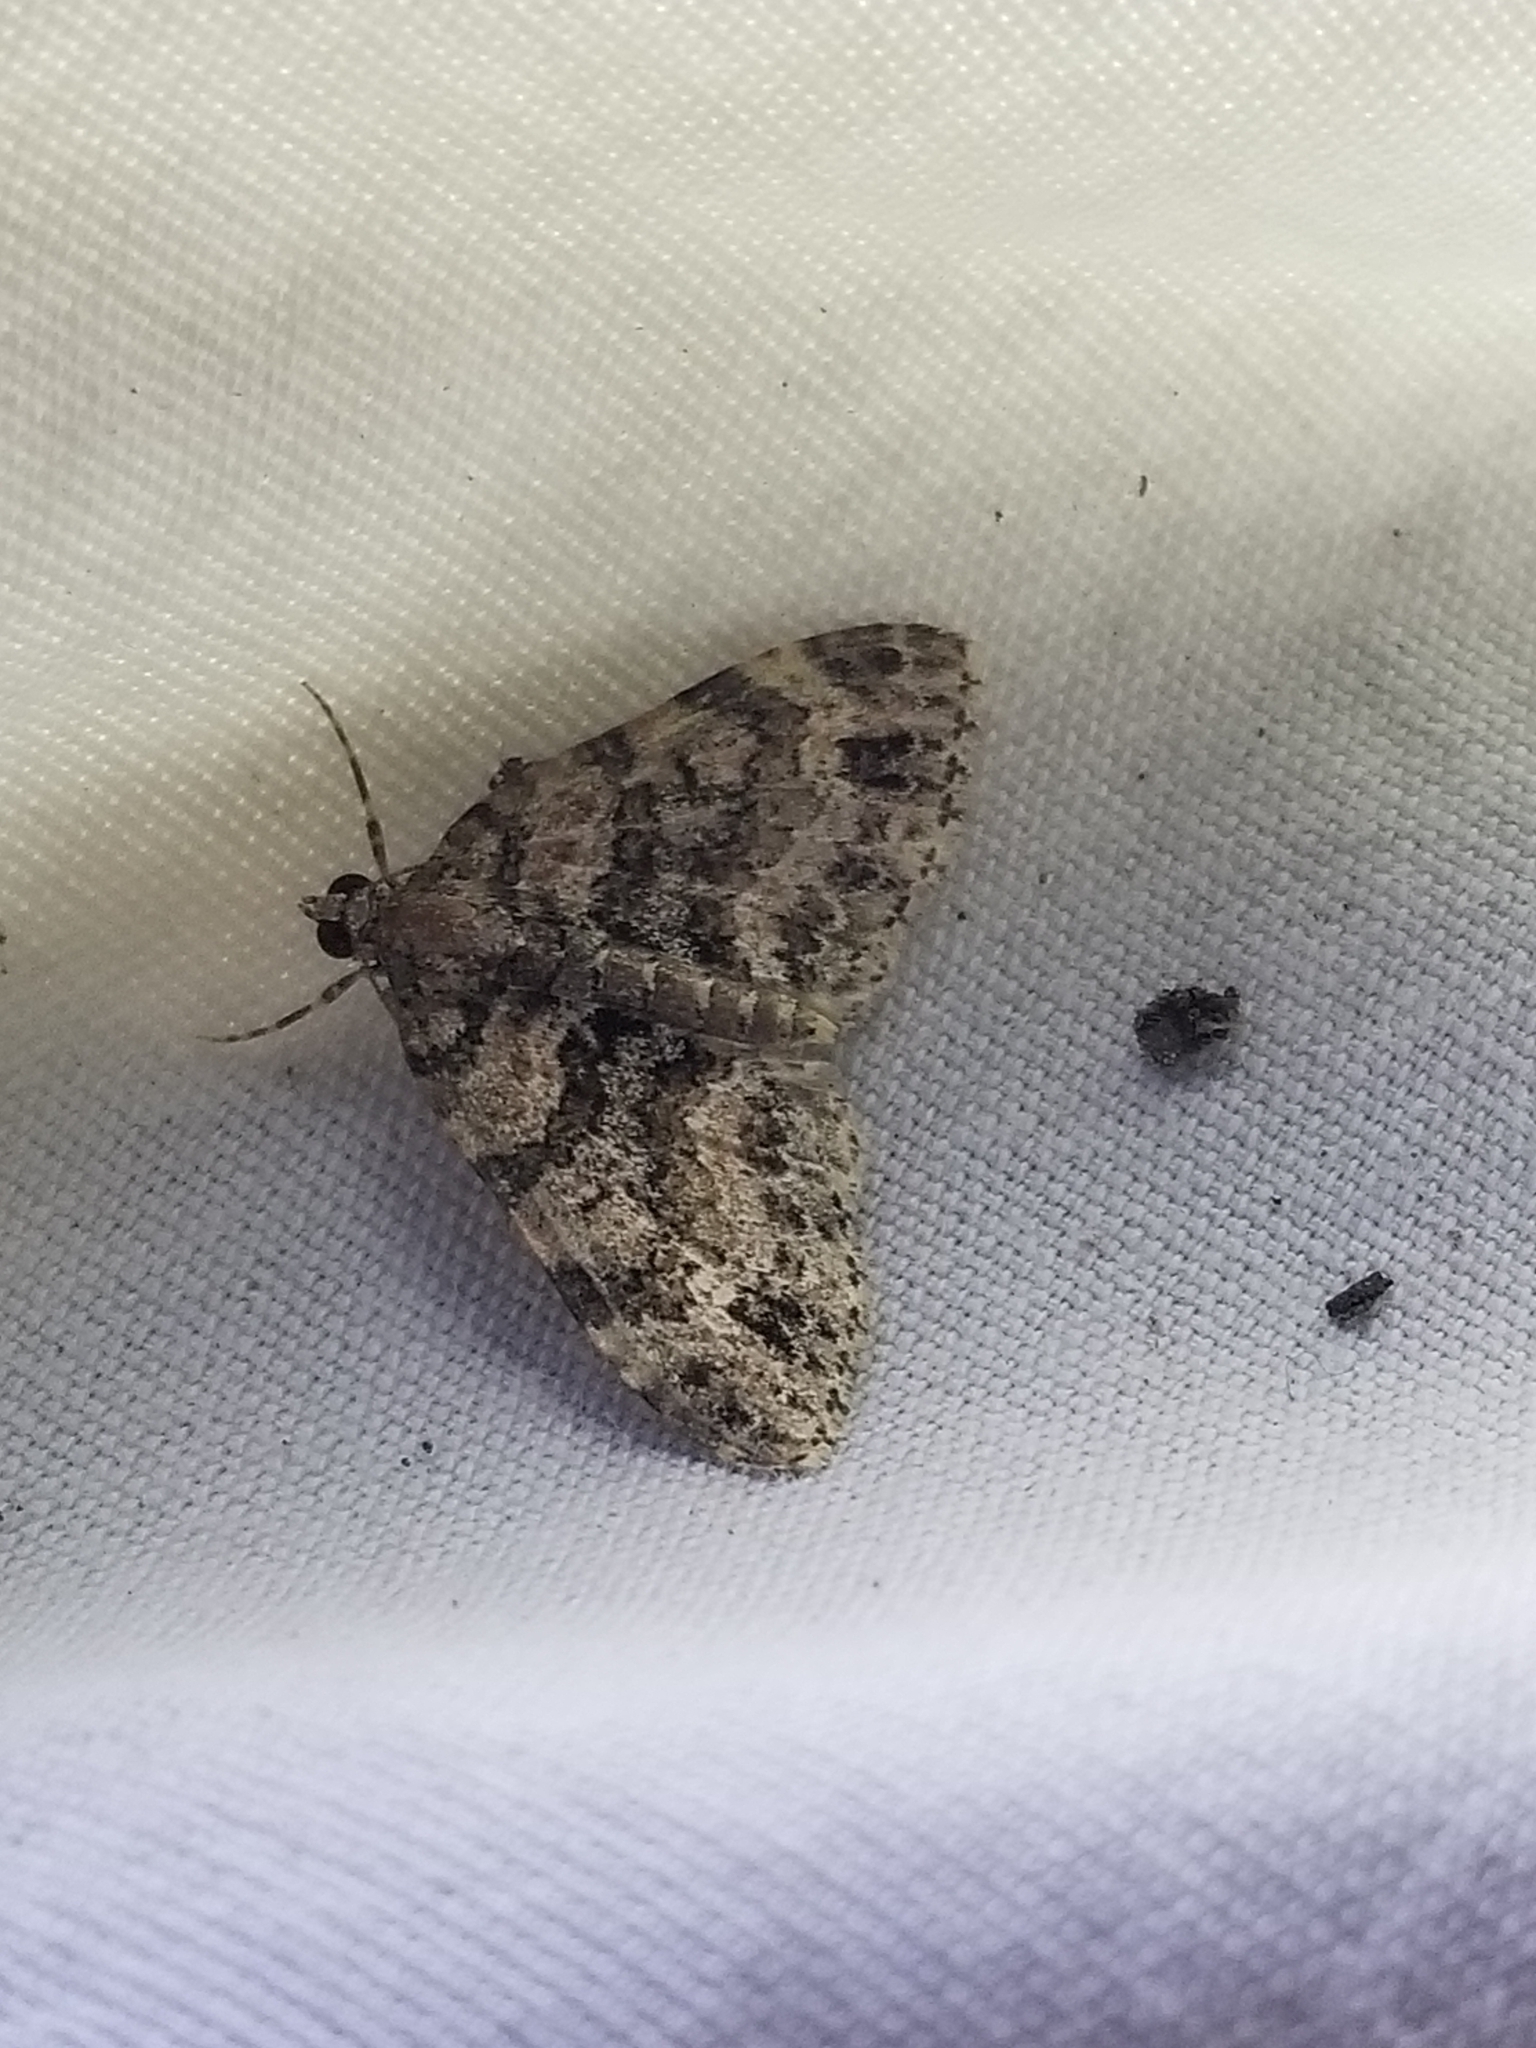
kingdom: Animalia
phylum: Arthropoda
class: Insecta
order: Lepidoptera
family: Geometridae
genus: Hammaptera
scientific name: Hammaptera parinotata
